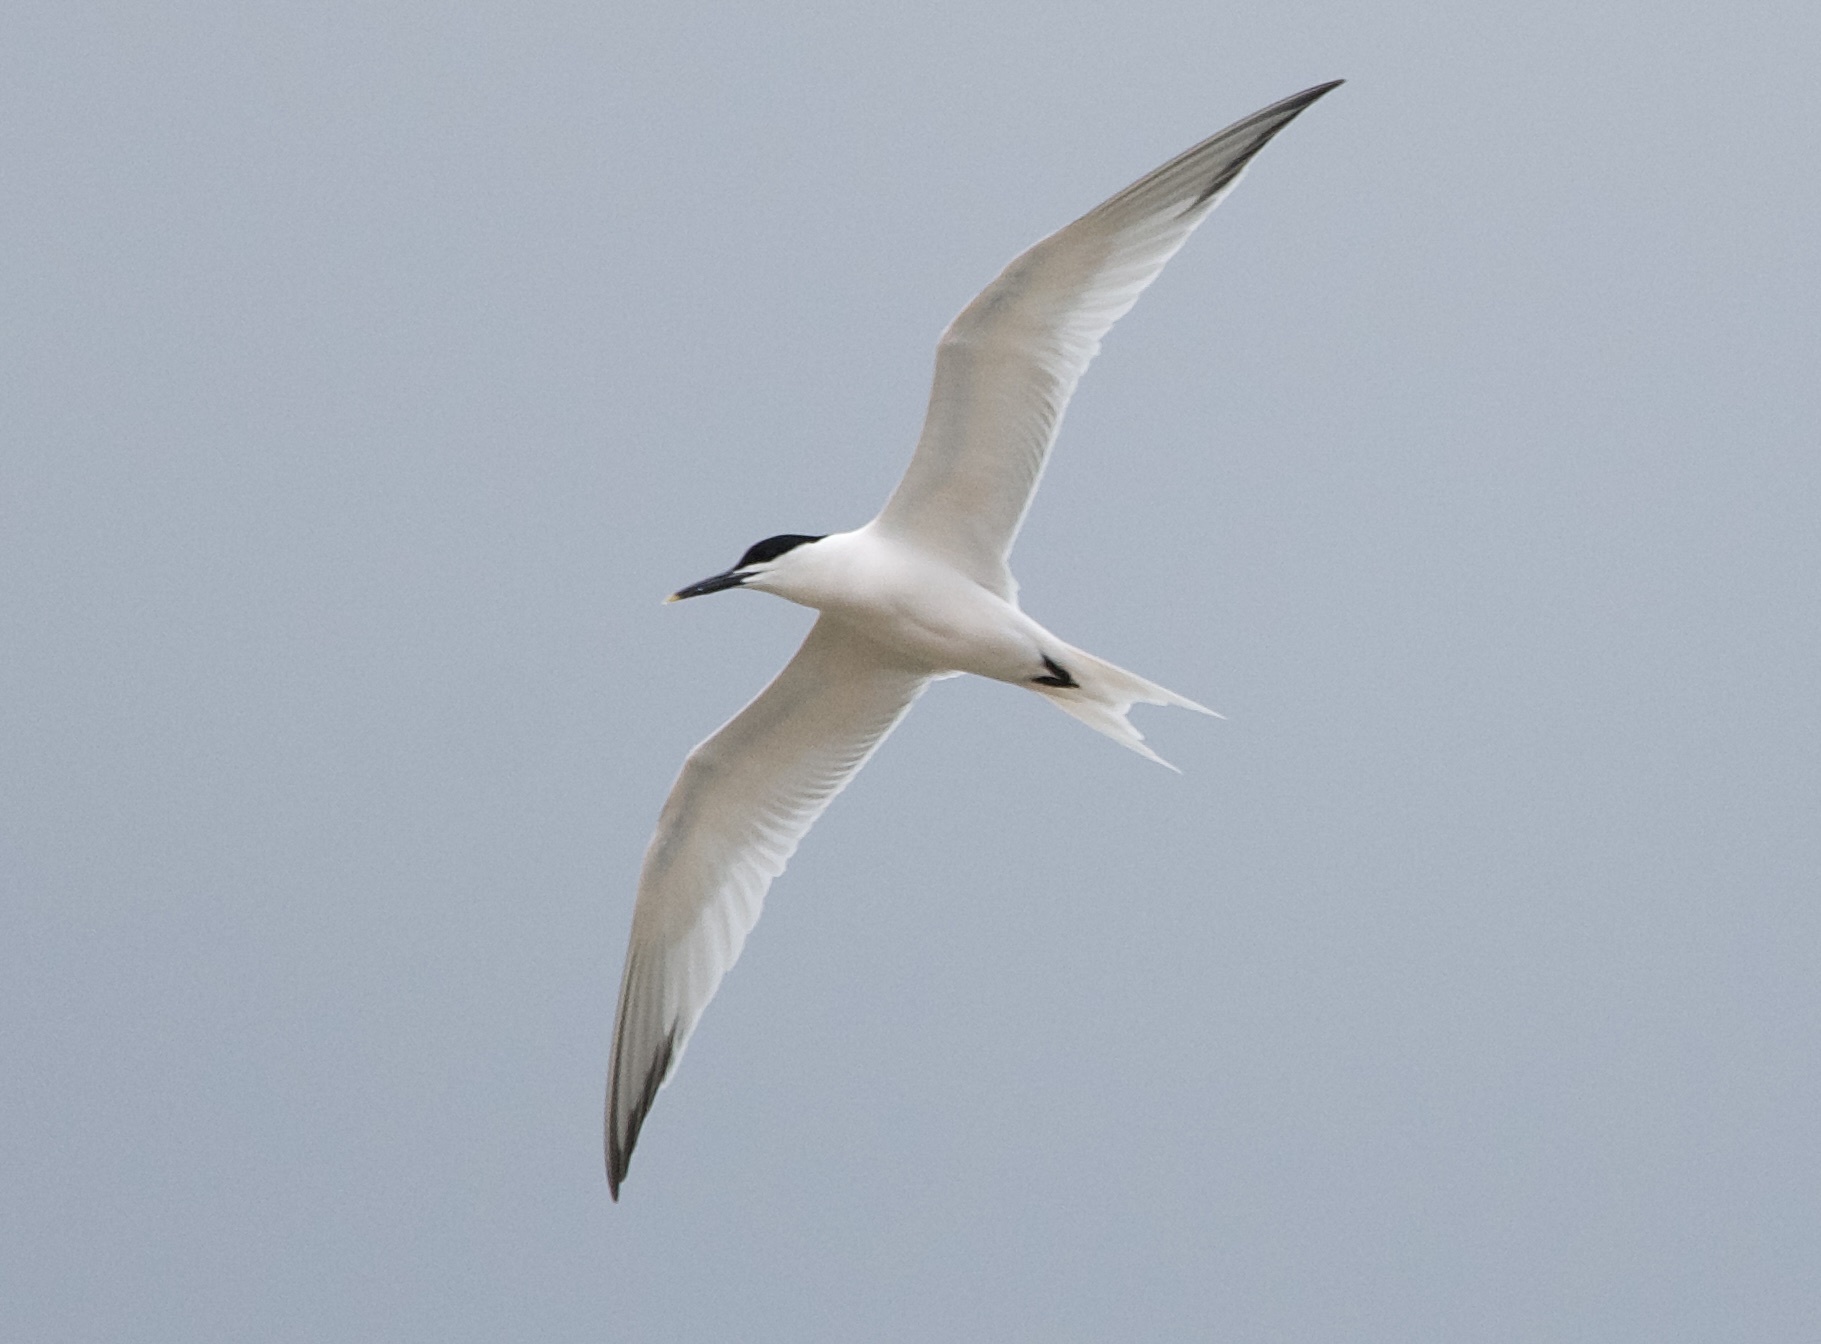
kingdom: Animalia
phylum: Chordata
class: Aves
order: Charadriiformes
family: Laridae
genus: Thalasseus
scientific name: Thalasseus sandvicensis
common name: Sandwich tern
